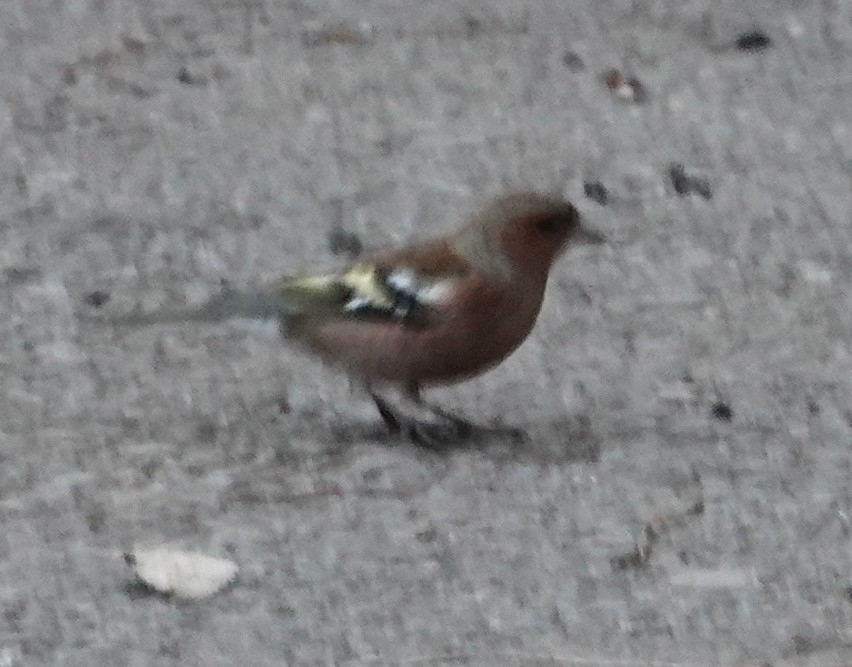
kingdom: Animalia
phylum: Chordata
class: Aves
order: Passeriformes
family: Fringillidae
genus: Fringilla
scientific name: Fringilla coelebs
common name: Common chaffinch
